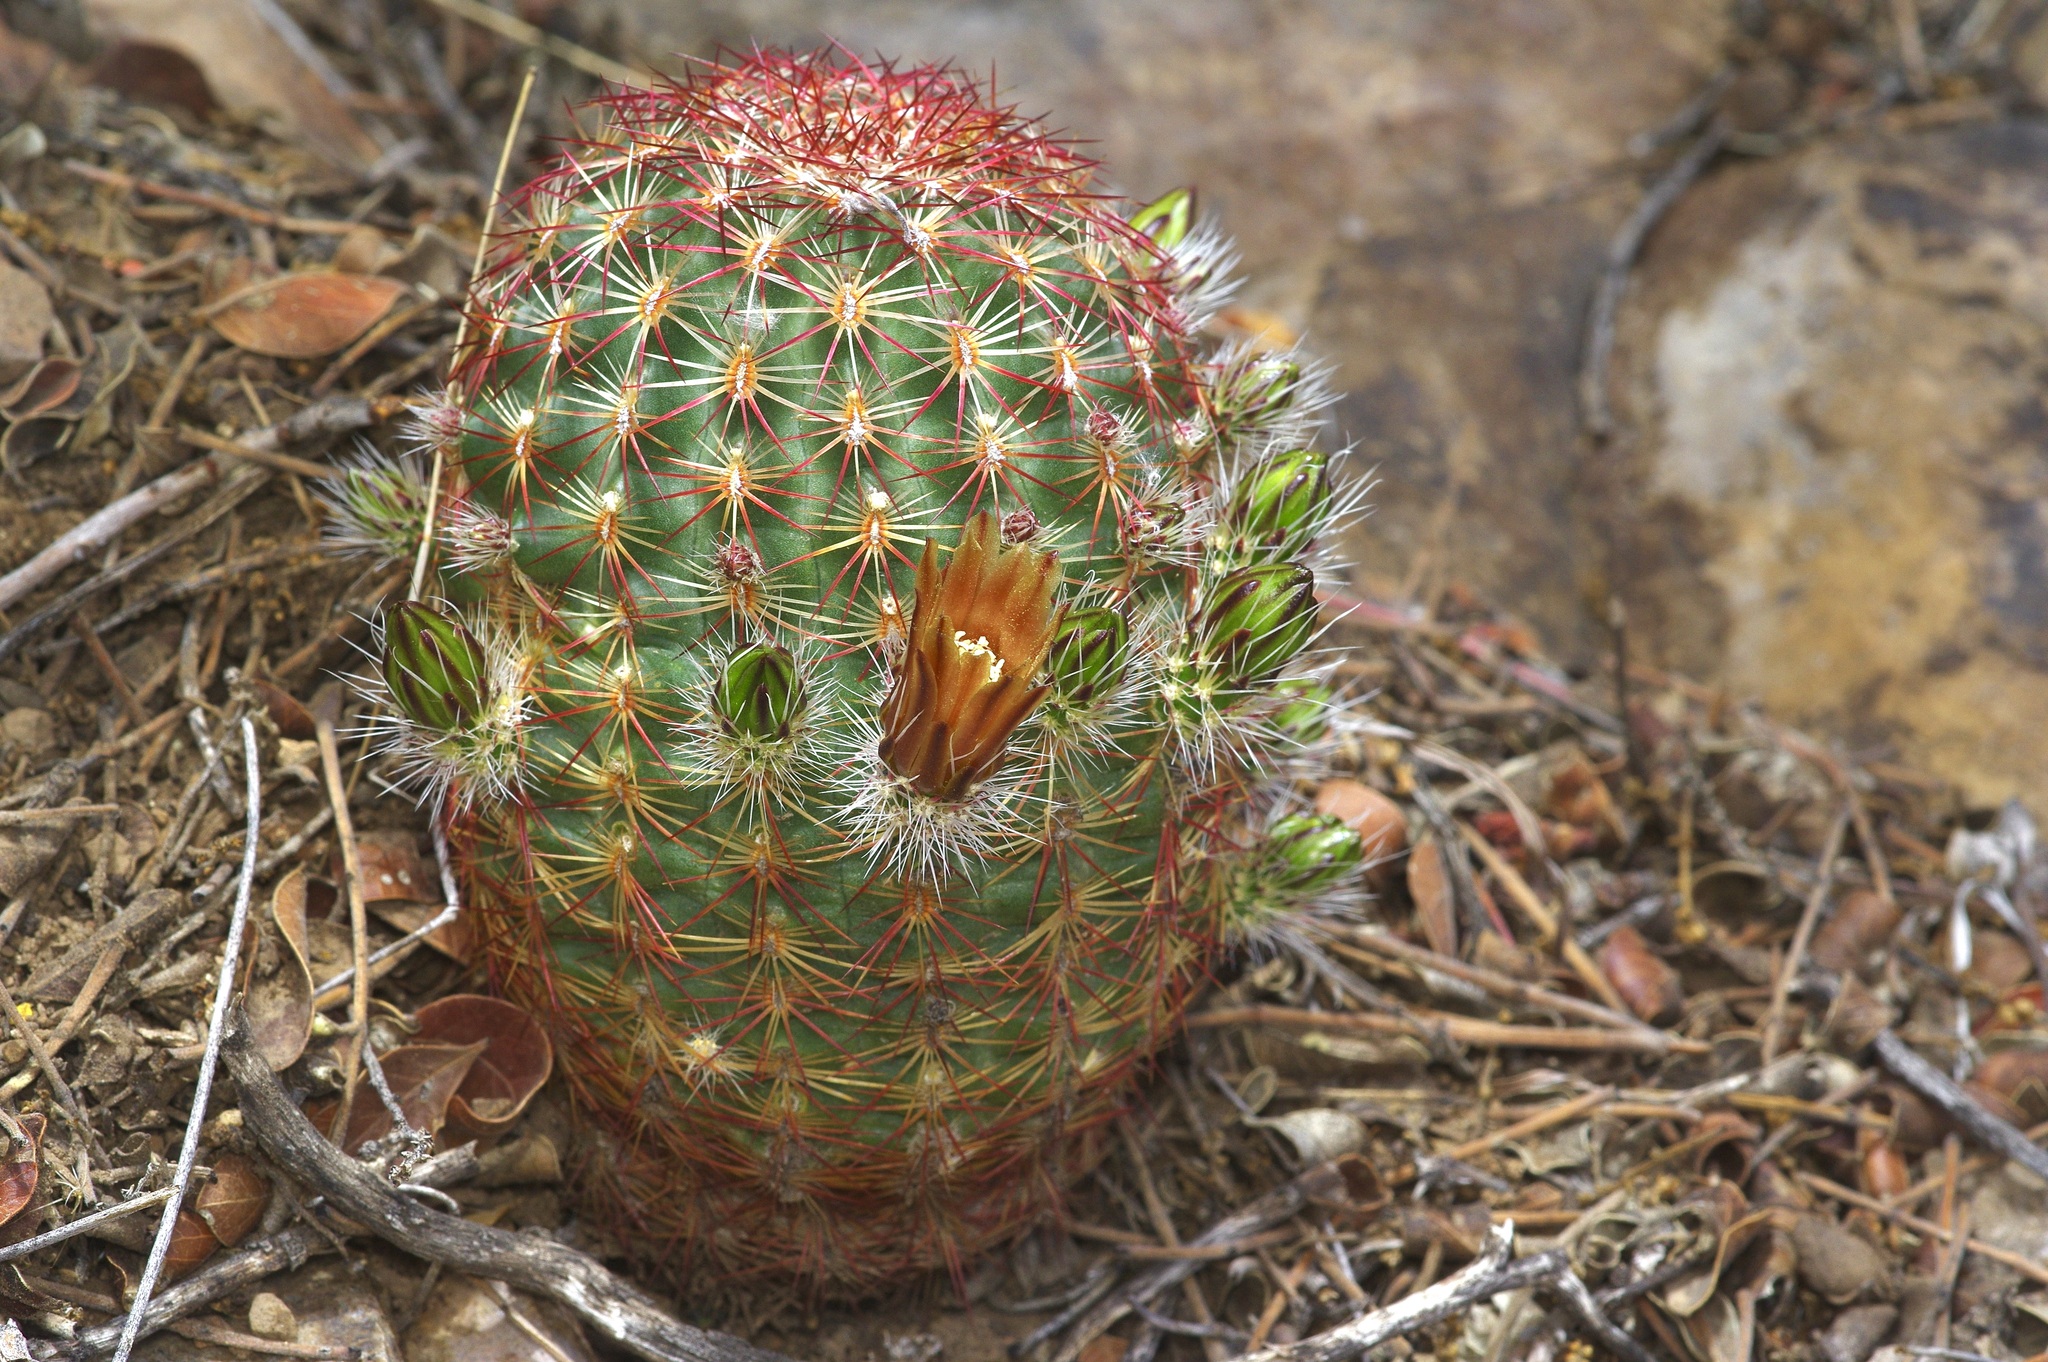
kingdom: Plantae
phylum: Tracheophyta
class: Magnoliopsida
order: Caryophyllales
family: Cactaceae
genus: Echinocereus
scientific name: Echinocereus viridiflorus
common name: Nylon hedgehog cactus
